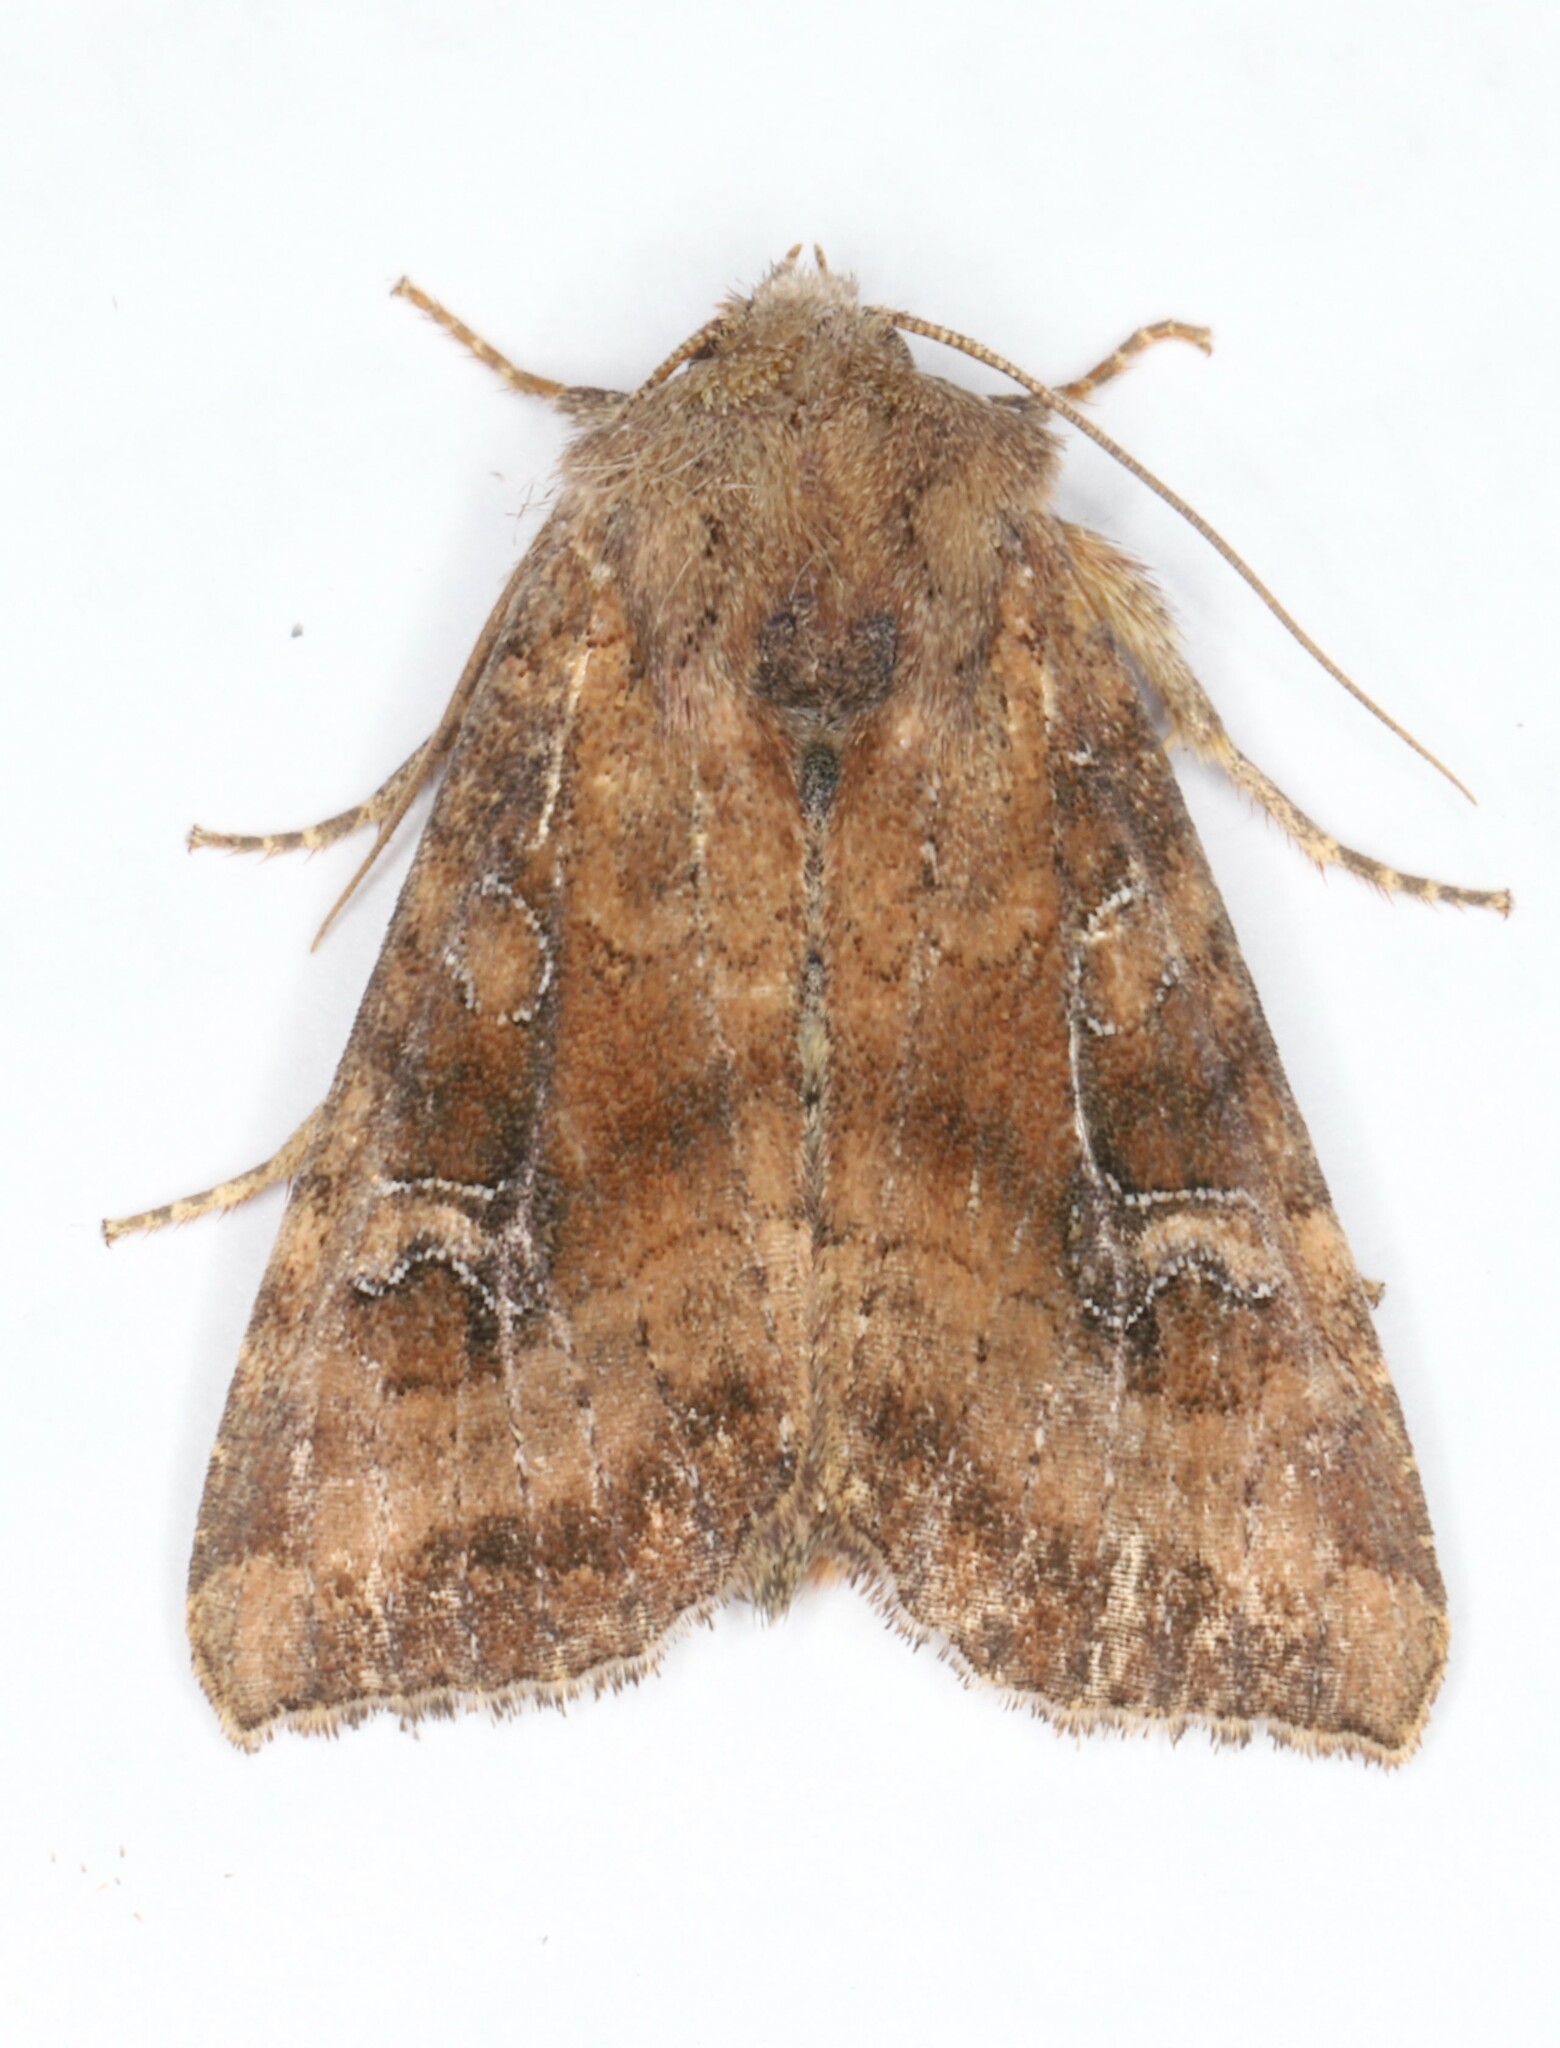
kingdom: Animalia
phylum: Arthropoda
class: Insecta
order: Lepidoptera
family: Noctuidae
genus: Loscopia
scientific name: Loscopia velata
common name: Veiled ear moth
